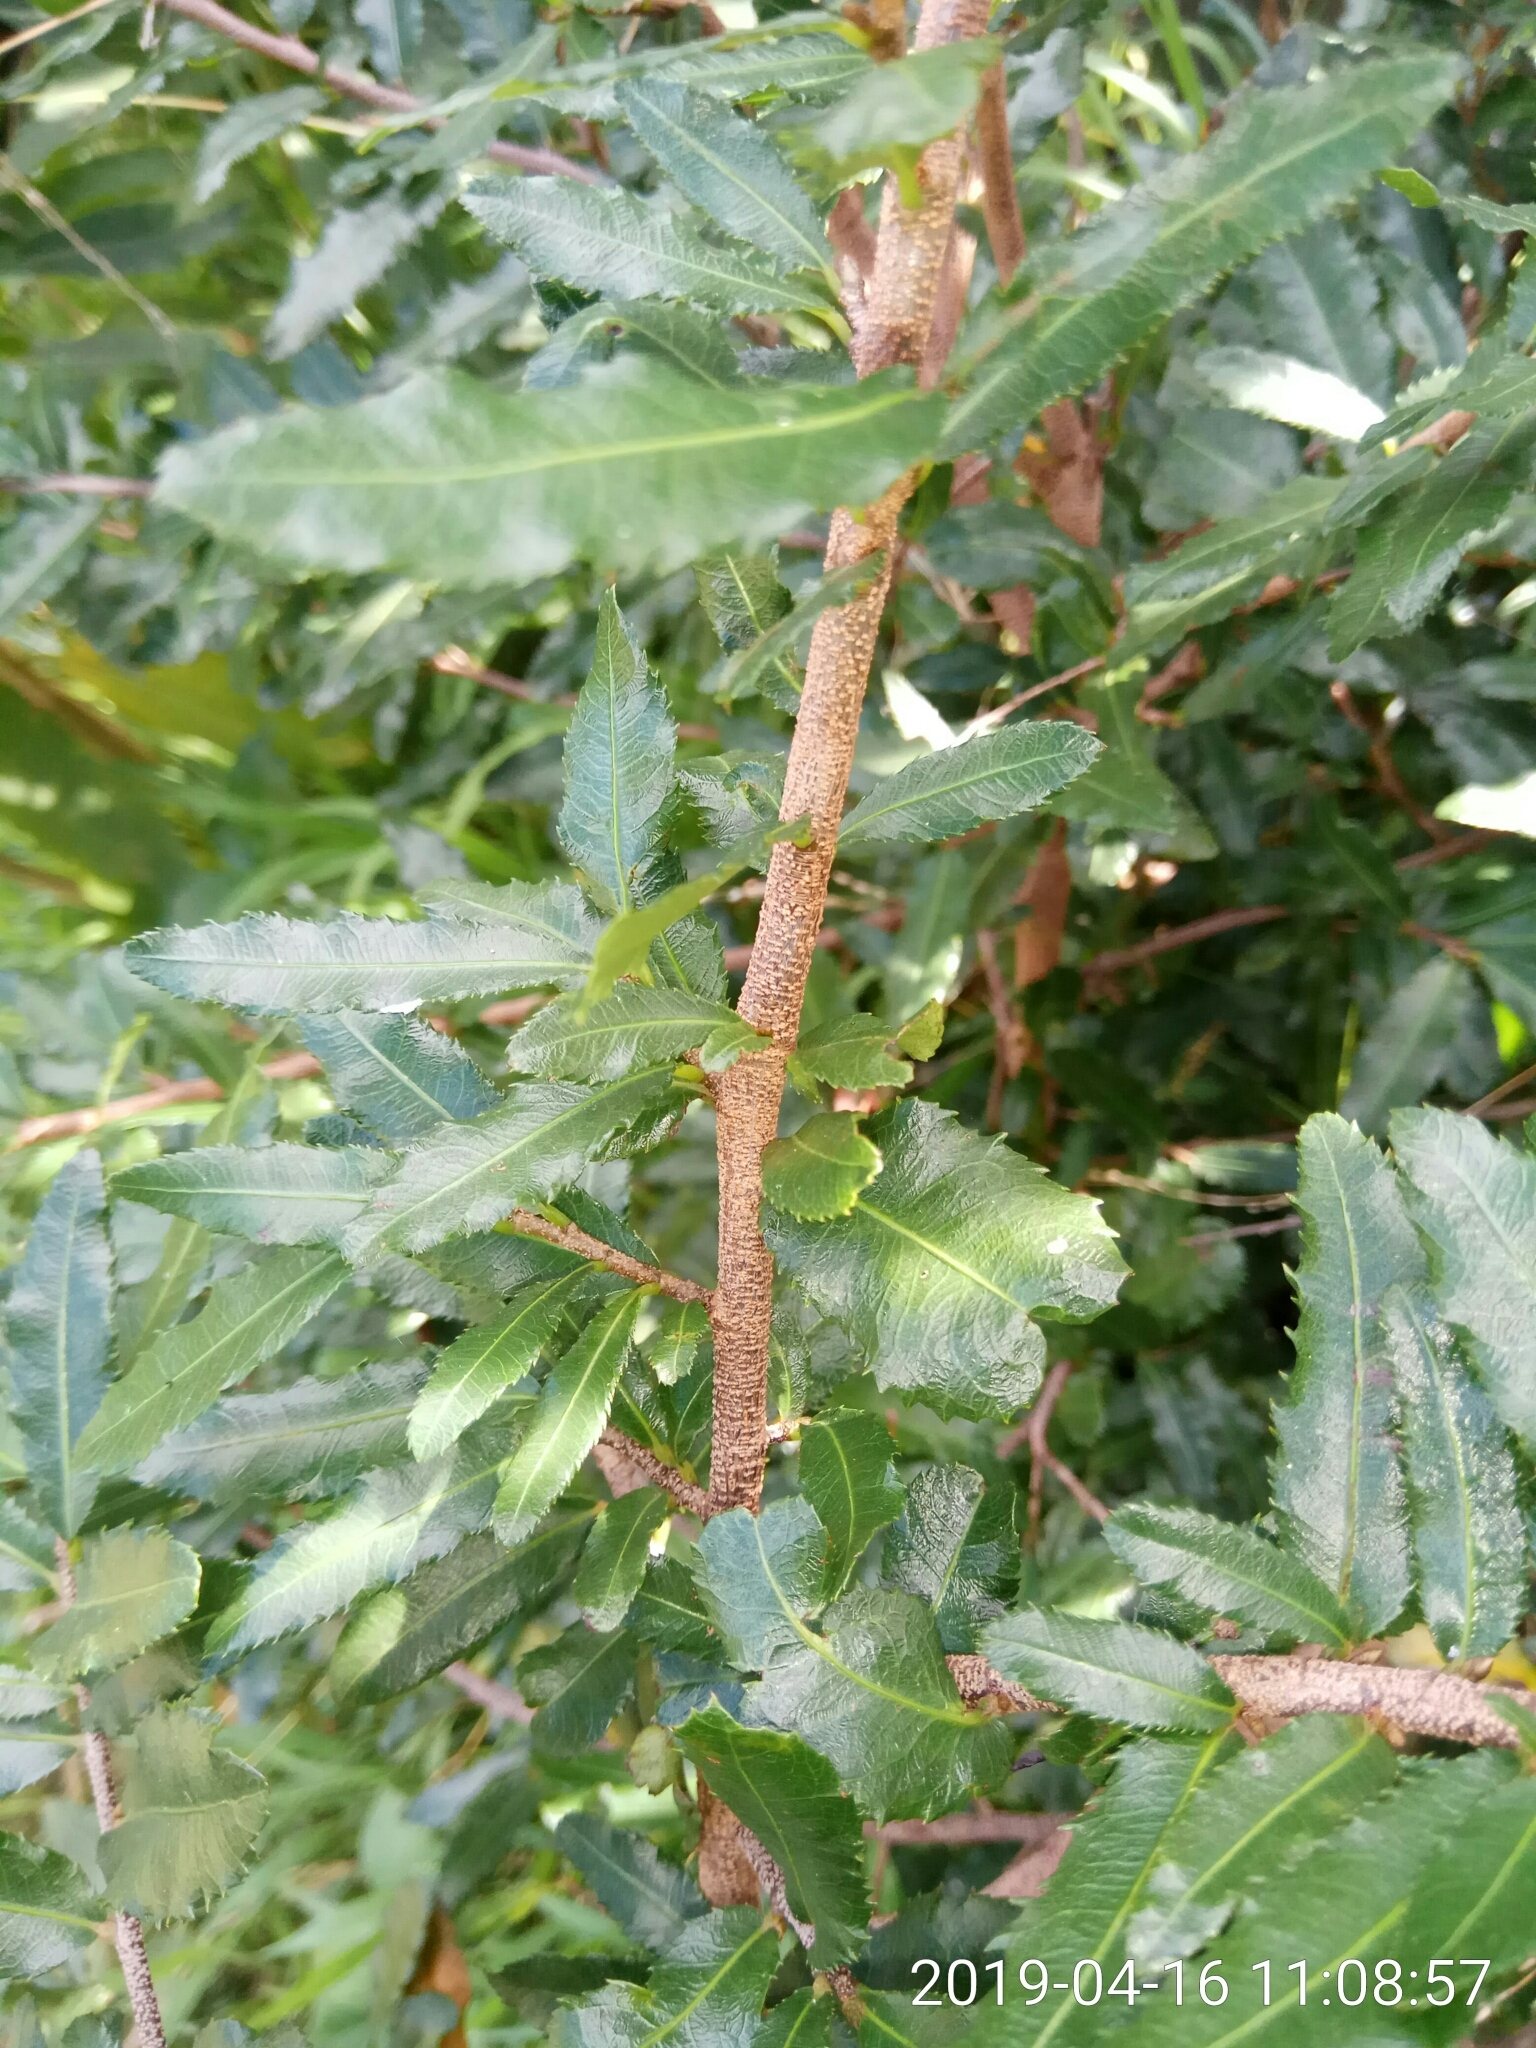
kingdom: Plantae
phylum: Tracheophyta
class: Magnoliopsida
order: Malpighiales
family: Ochnaceae
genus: Ochna
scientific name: Ochna serrulata
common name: Mickey mouse plant
